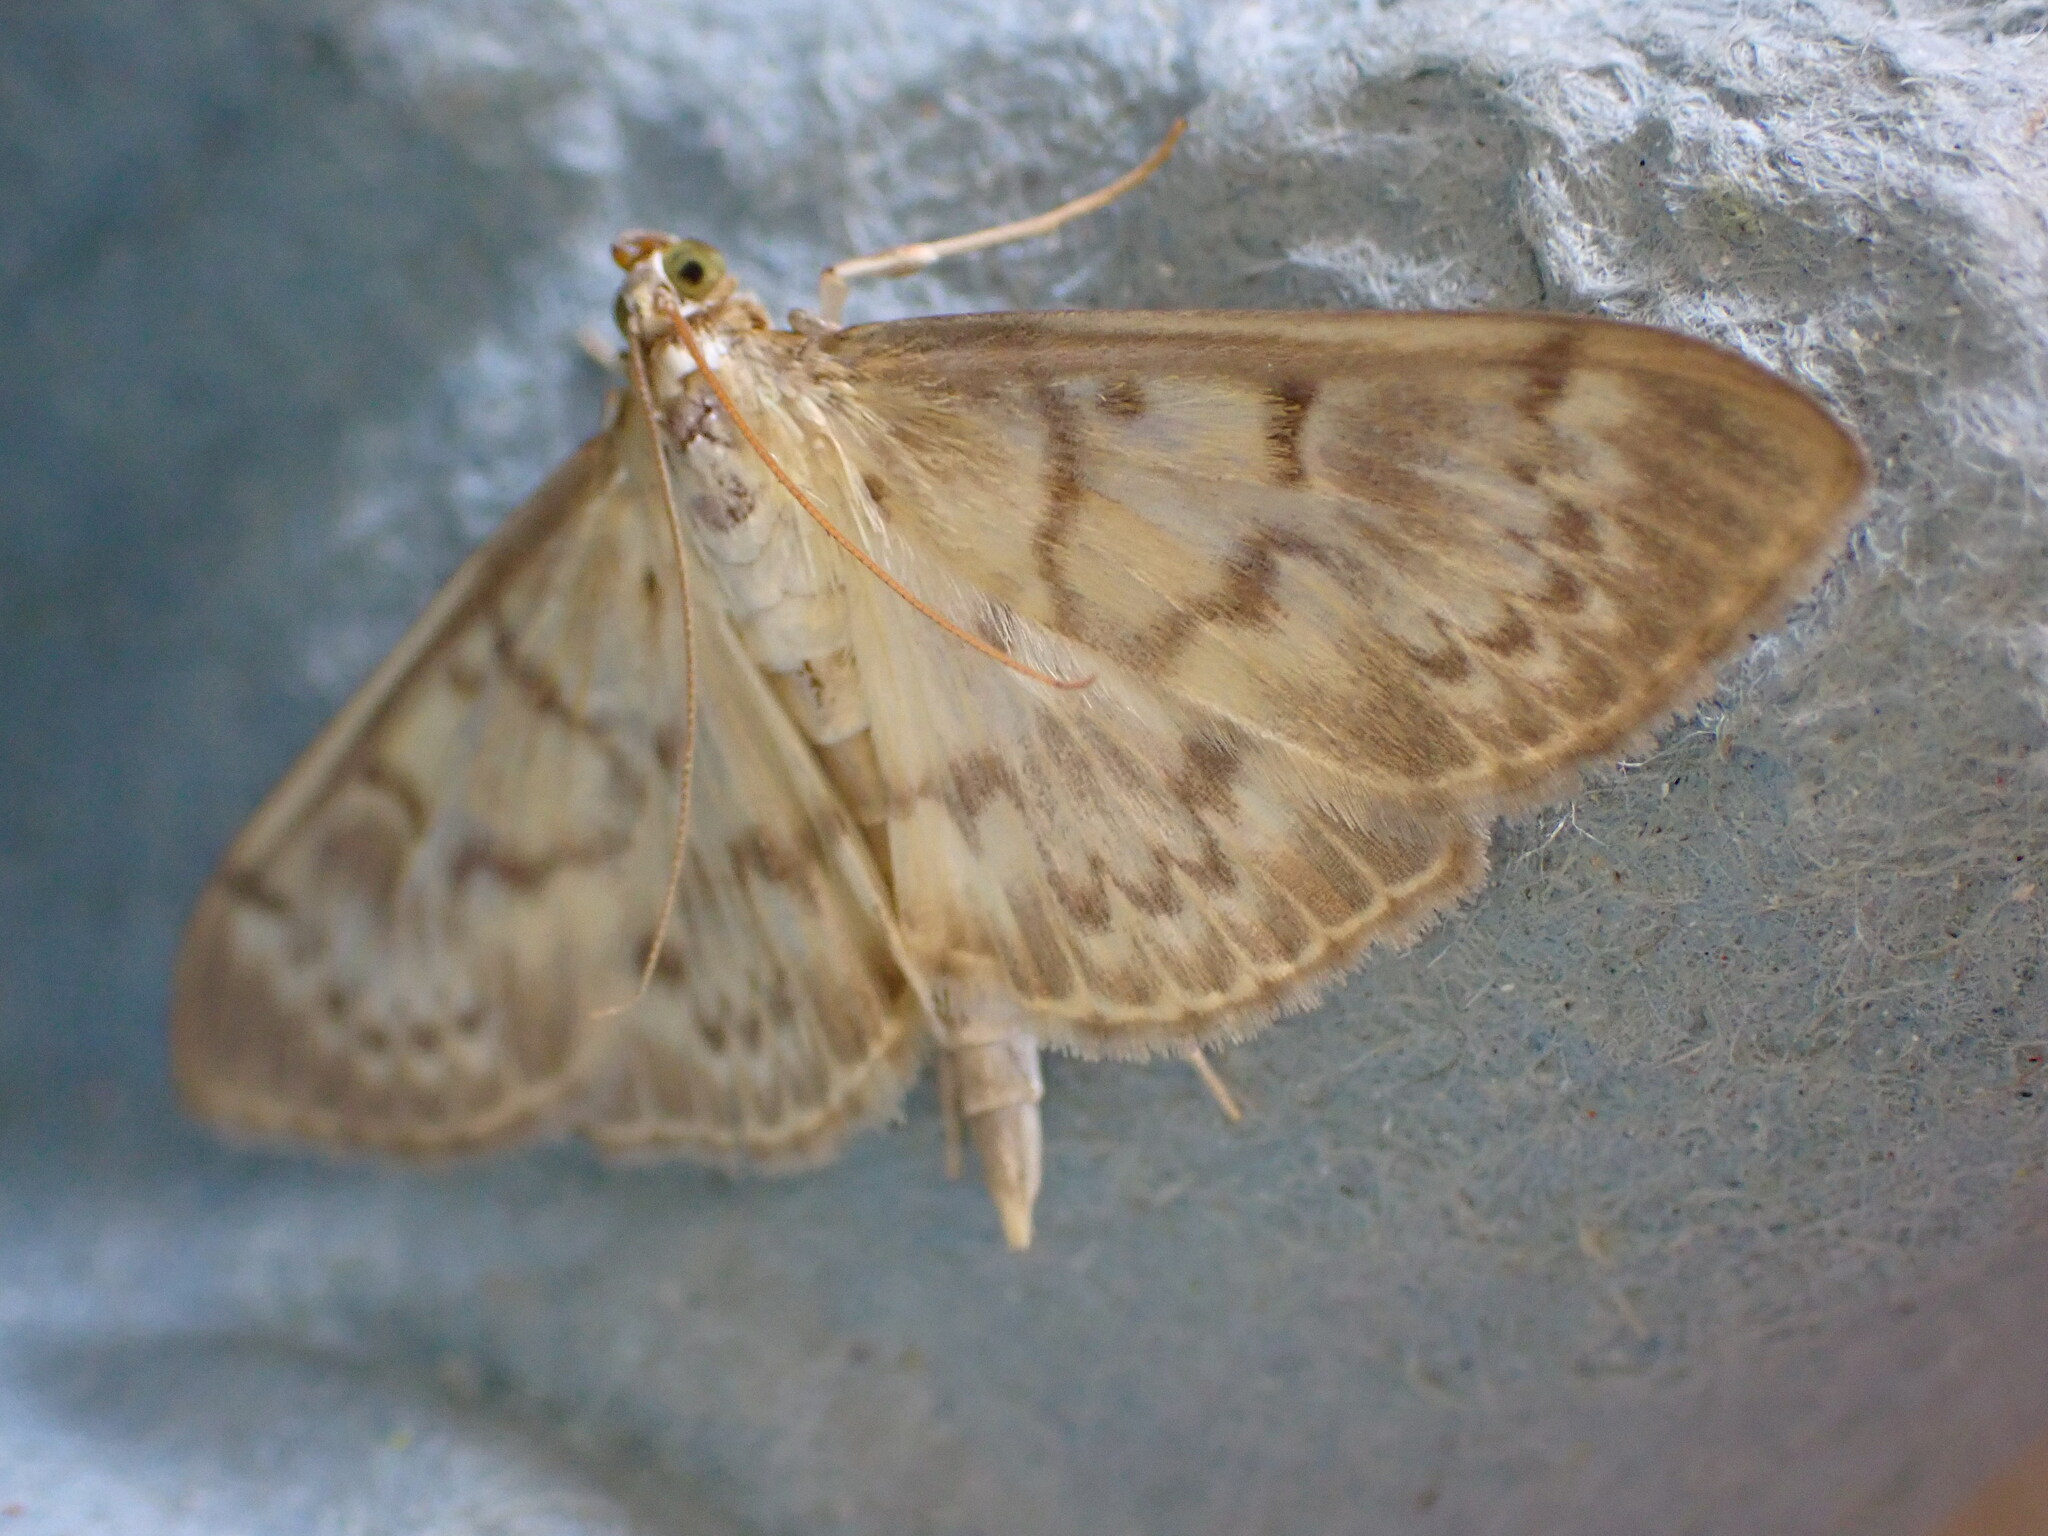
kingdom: Animalia
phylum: Arthropoda
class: Insecta
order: Lepidoptera
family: Crambidae
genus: Patania
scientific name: Patania ruralis
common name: Mother of pearl
